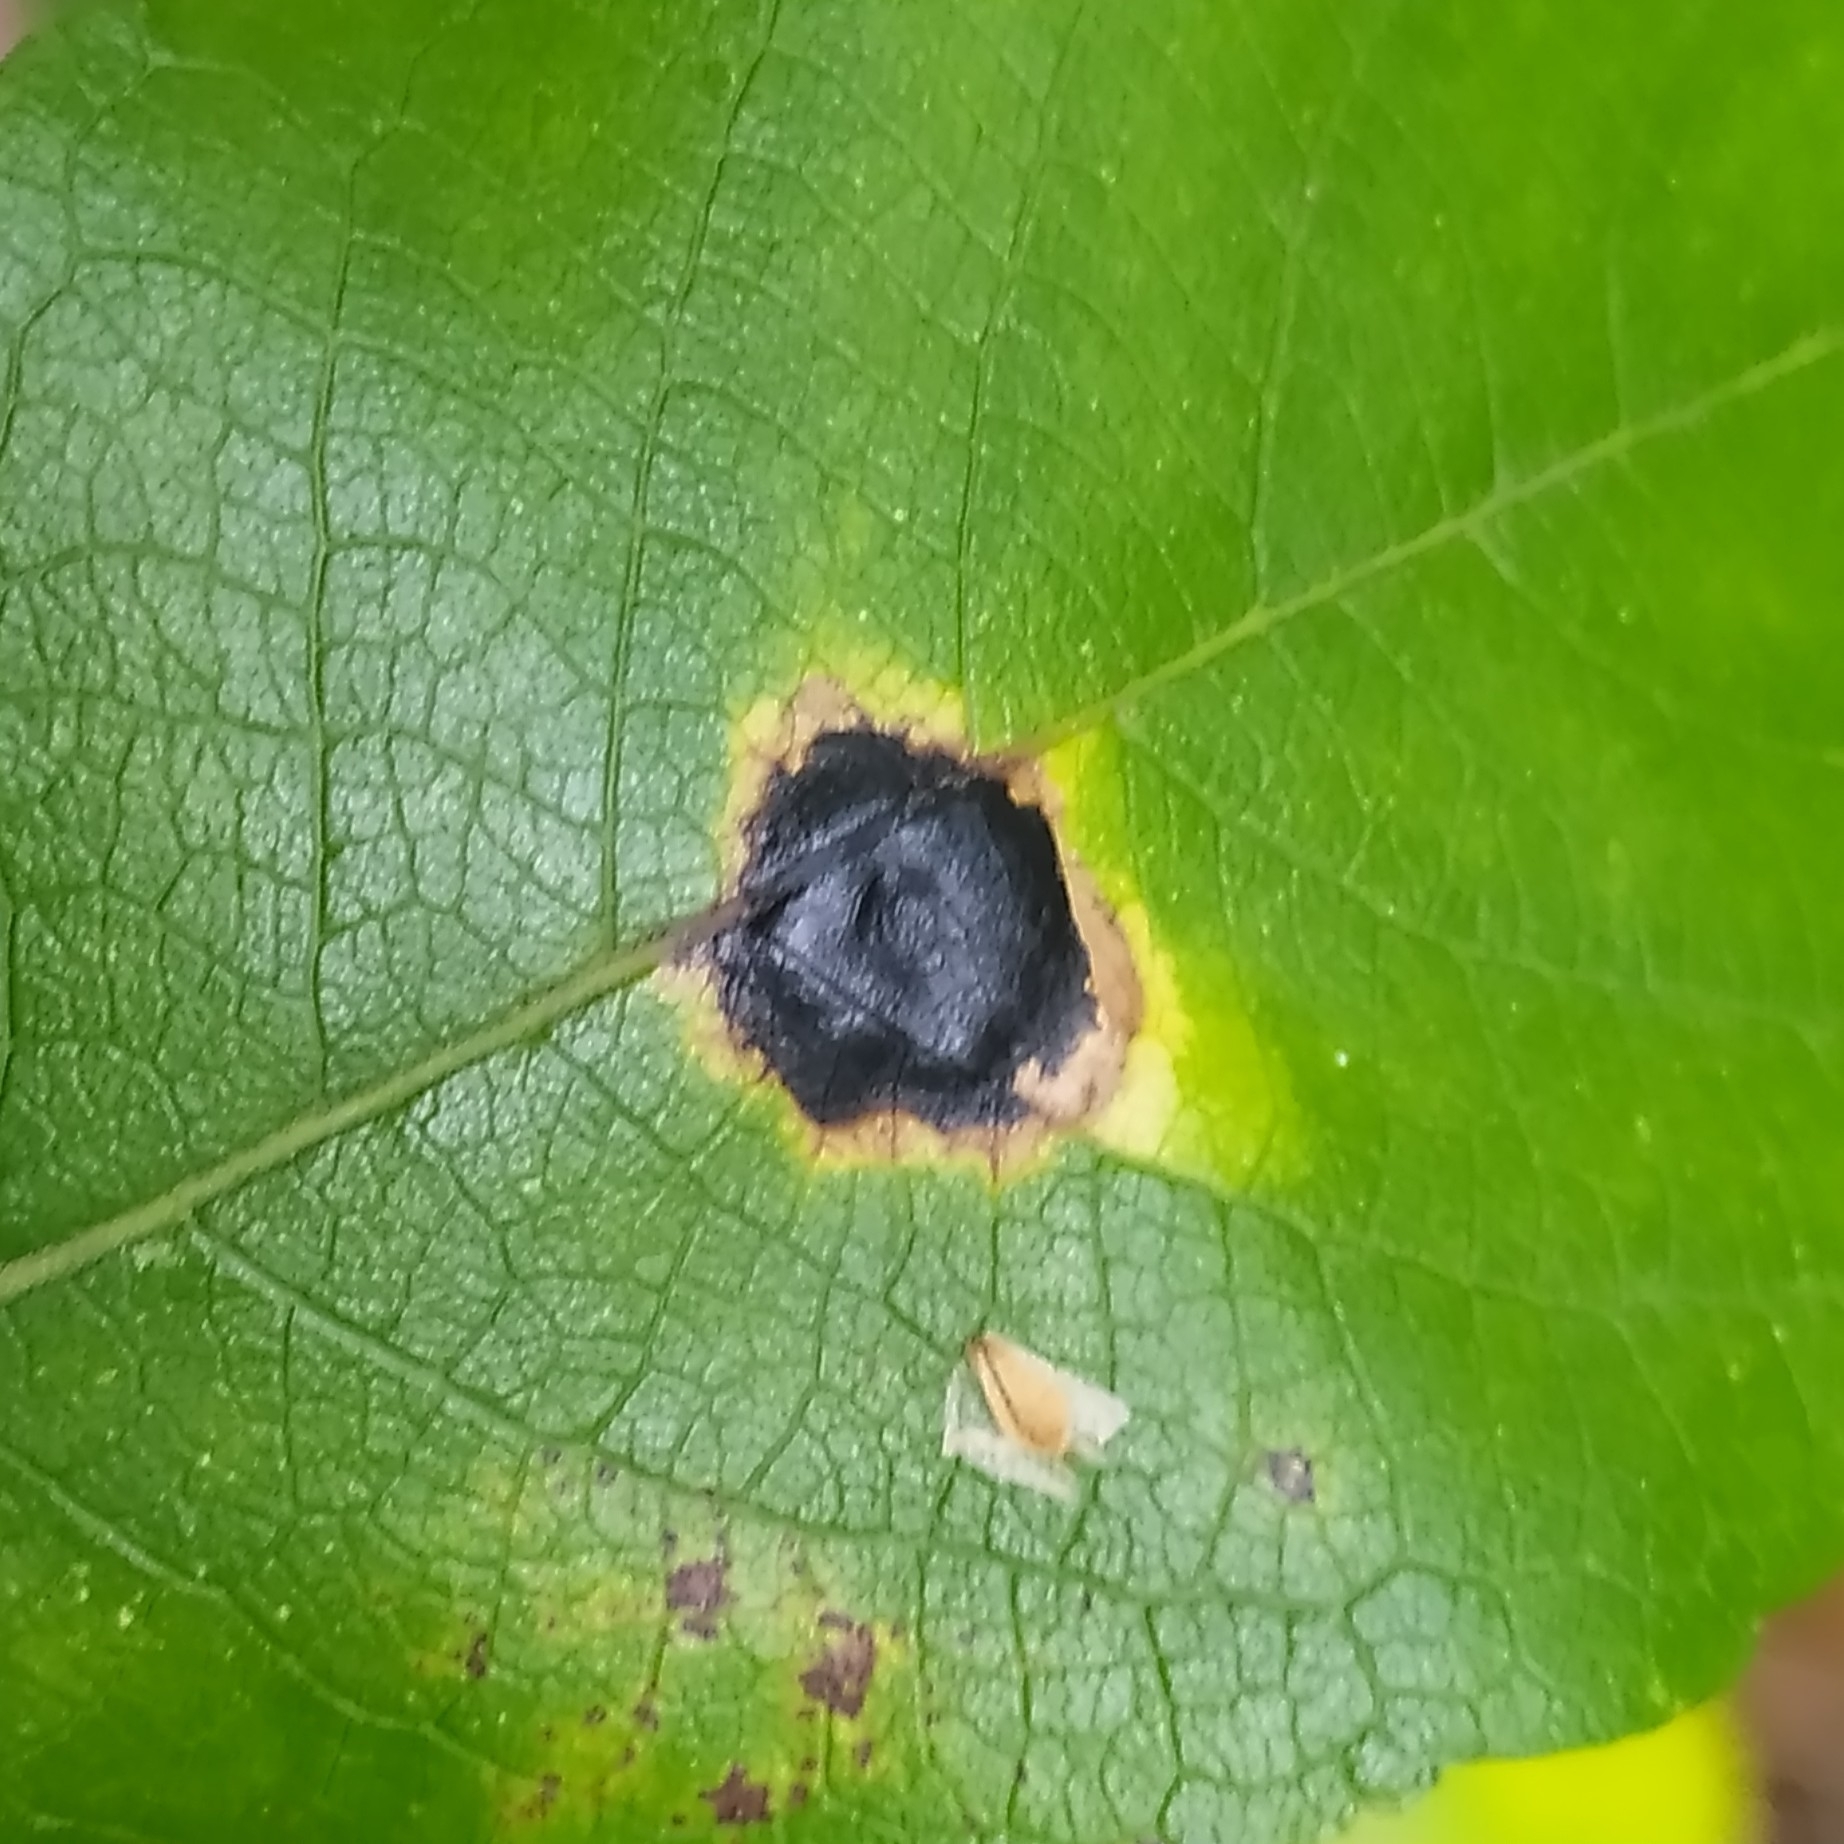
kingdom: Fungi
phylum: Ascomycota
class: Leotiomycetes
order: Rhytismatales
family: Rhytismataceae
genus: Rhytisma
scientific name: Rhytisma salicinum
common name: Willow tarspot
